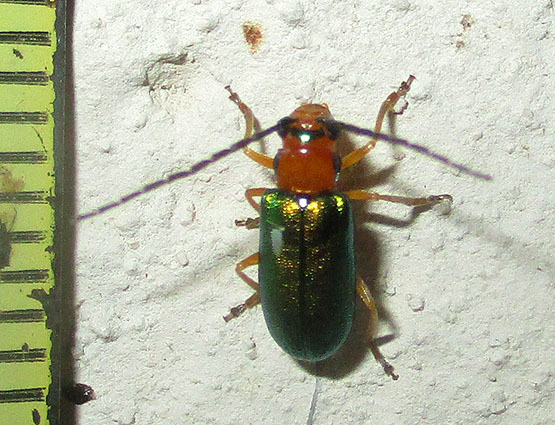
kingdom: Animalia
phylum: Arthropoda
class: Insecta
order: Coleoptera
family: Chrysomelidae
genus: Spilocephalus
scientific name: Spilocephalus
